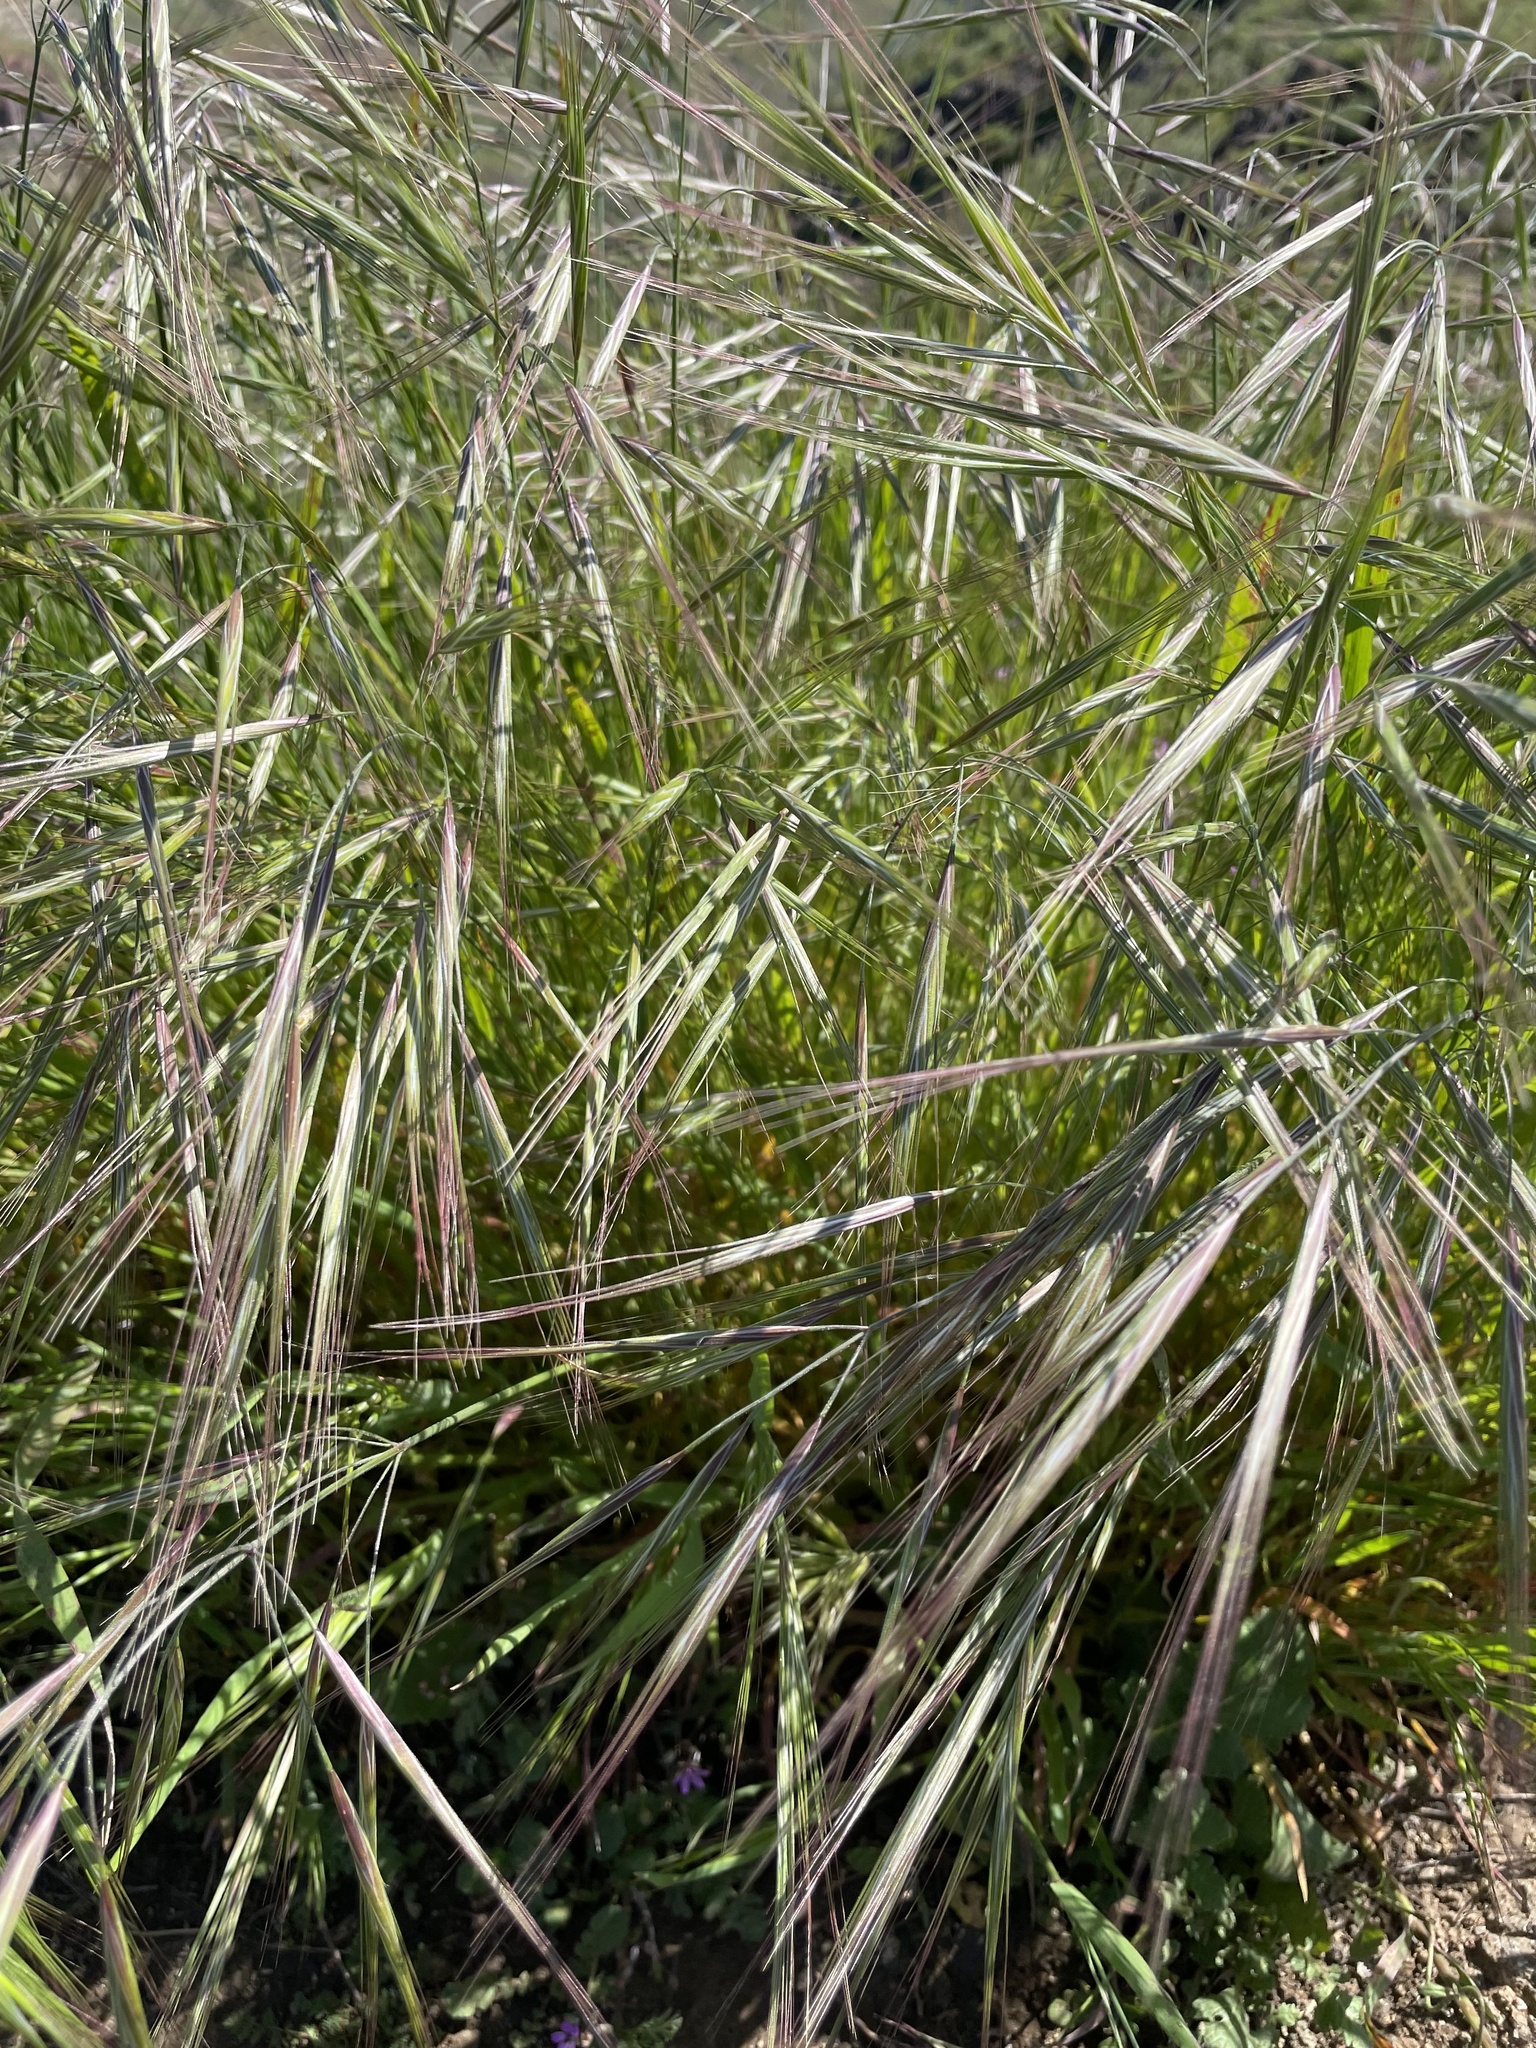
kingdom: Plantae
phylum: Tracheophyta
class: Liliopsida
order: Poales
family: Poaceae
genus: Bromus
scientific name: Bromus diandrus
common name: Ripgut brome
